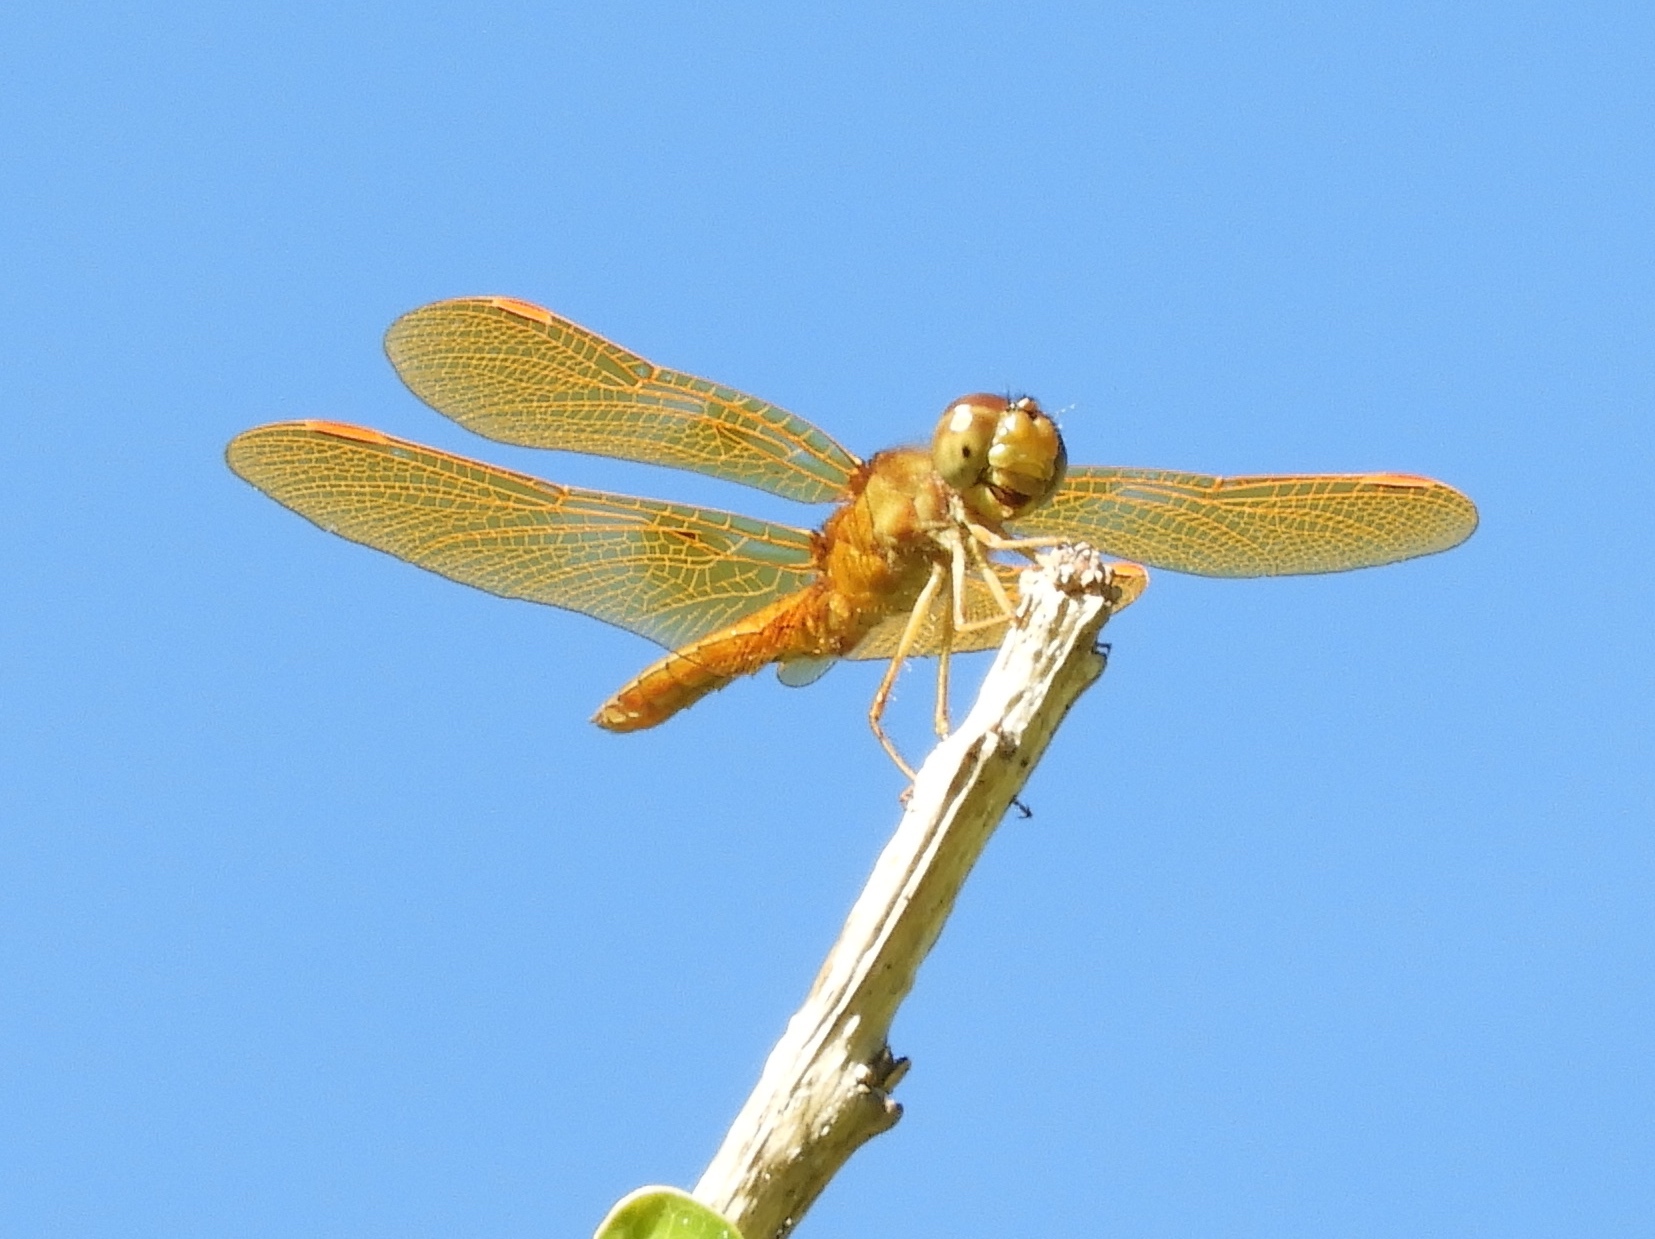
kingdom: Animalia
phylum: Arthropoda
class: Insecta
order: Odonata
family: Libellulidae
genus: Perithemis
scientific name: Perithemis
